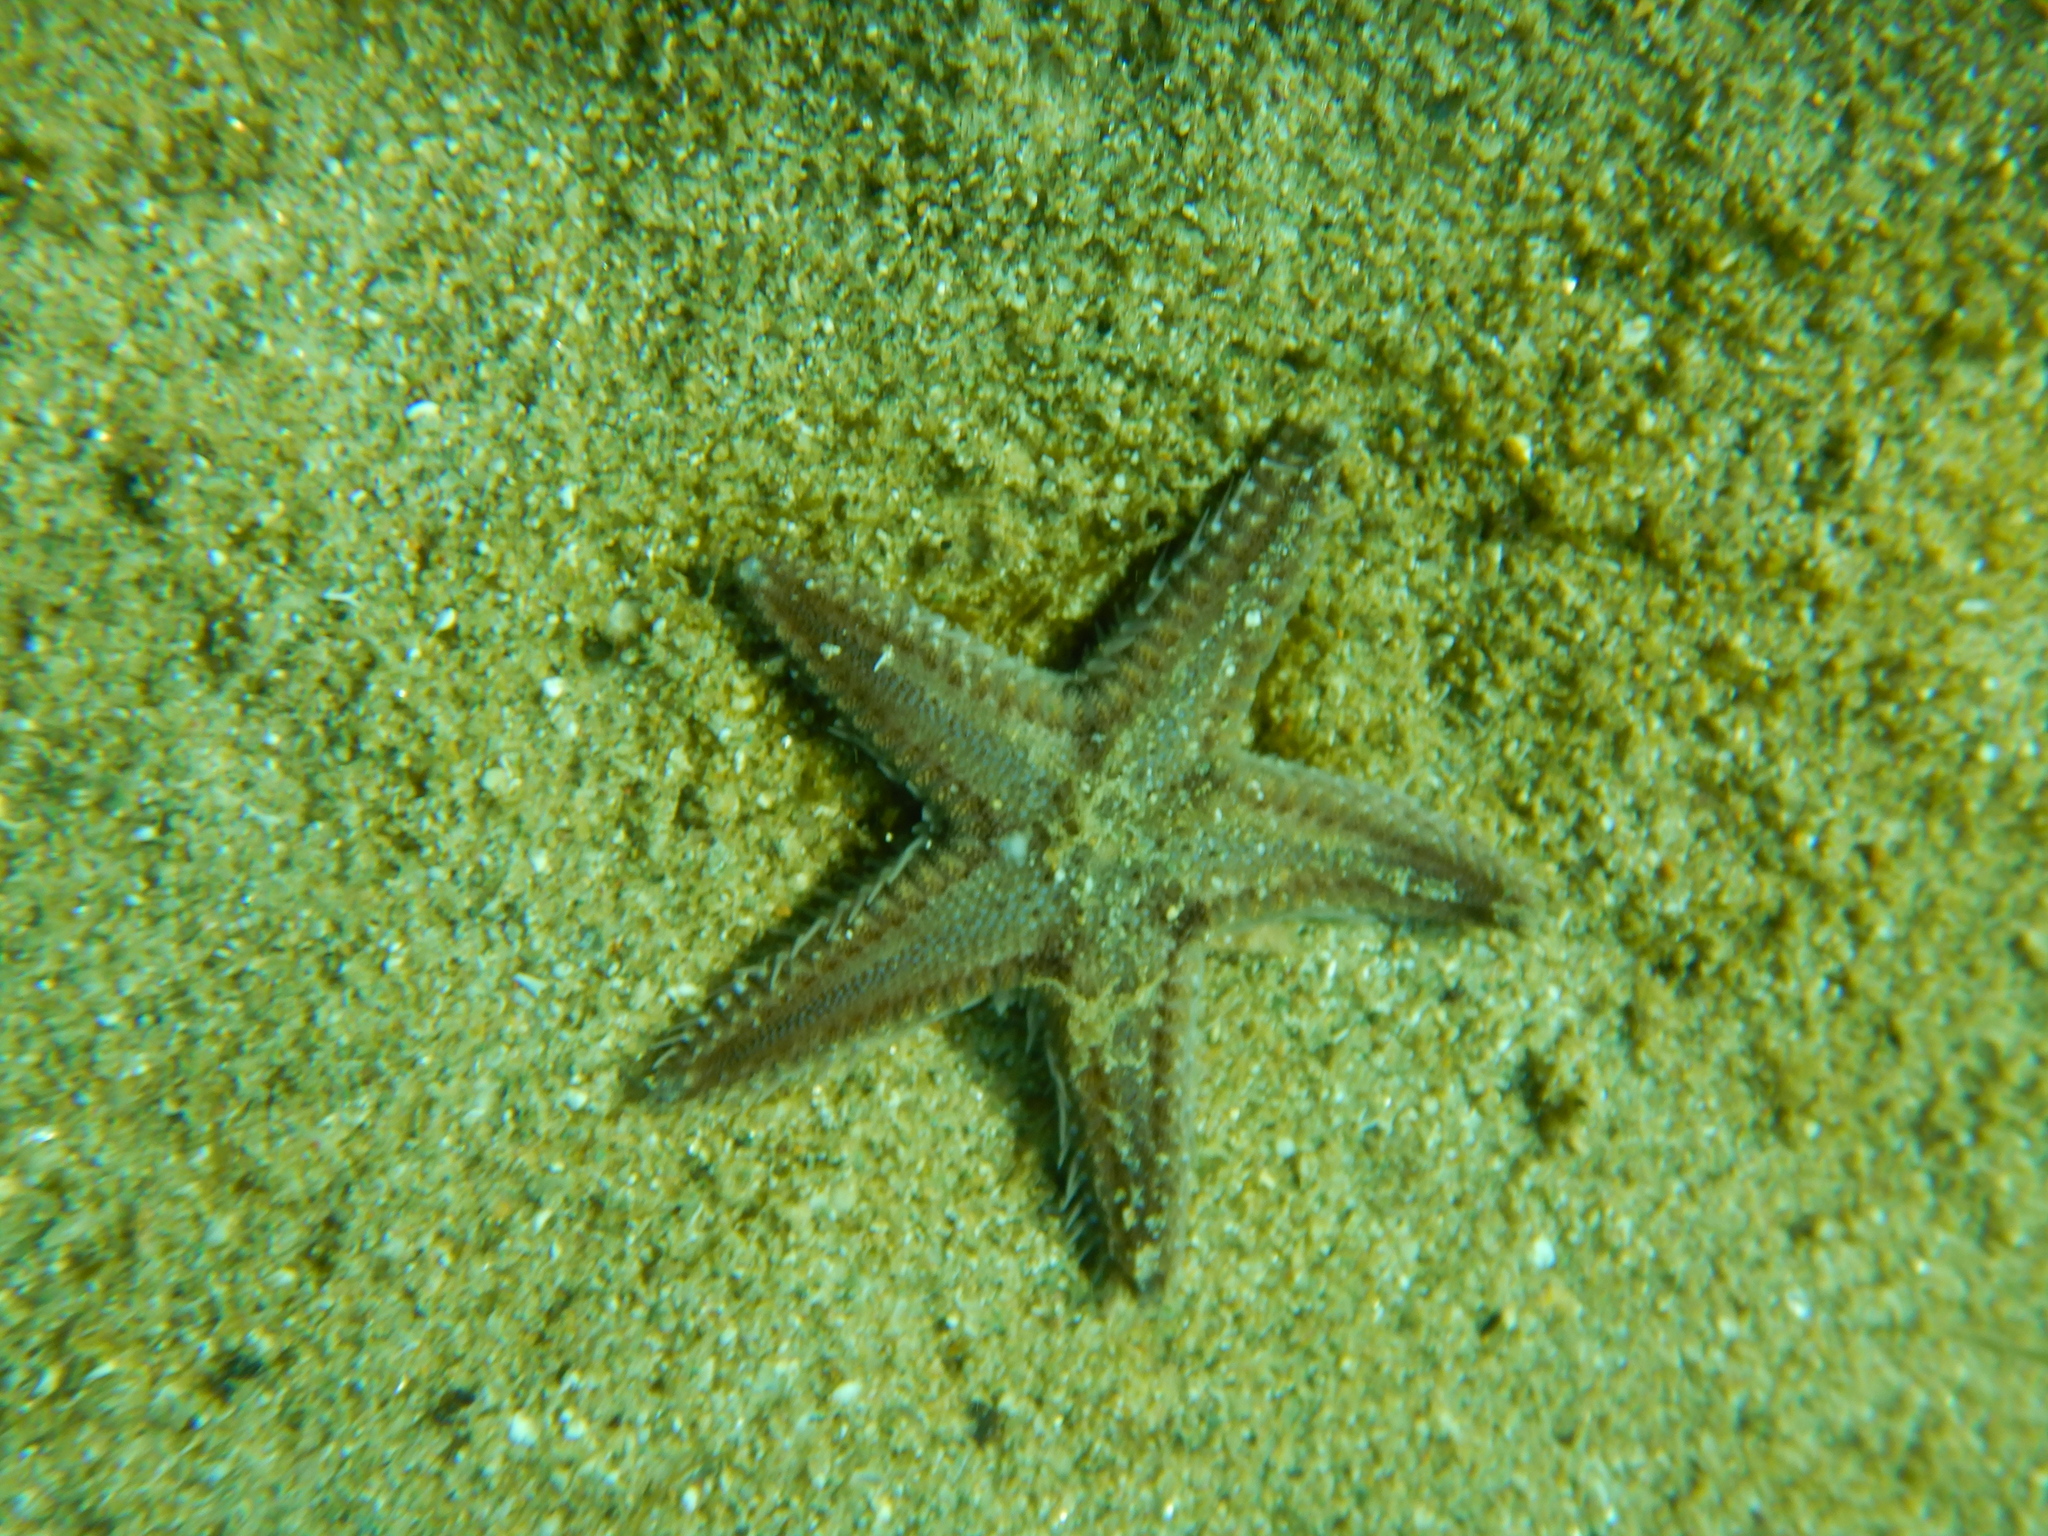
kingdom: Animalia
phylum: Echinodermata
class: Asteroidea
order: Paxillosida
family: Astropectinidae
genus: Astropecten
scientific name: Astropecten spinulosus
